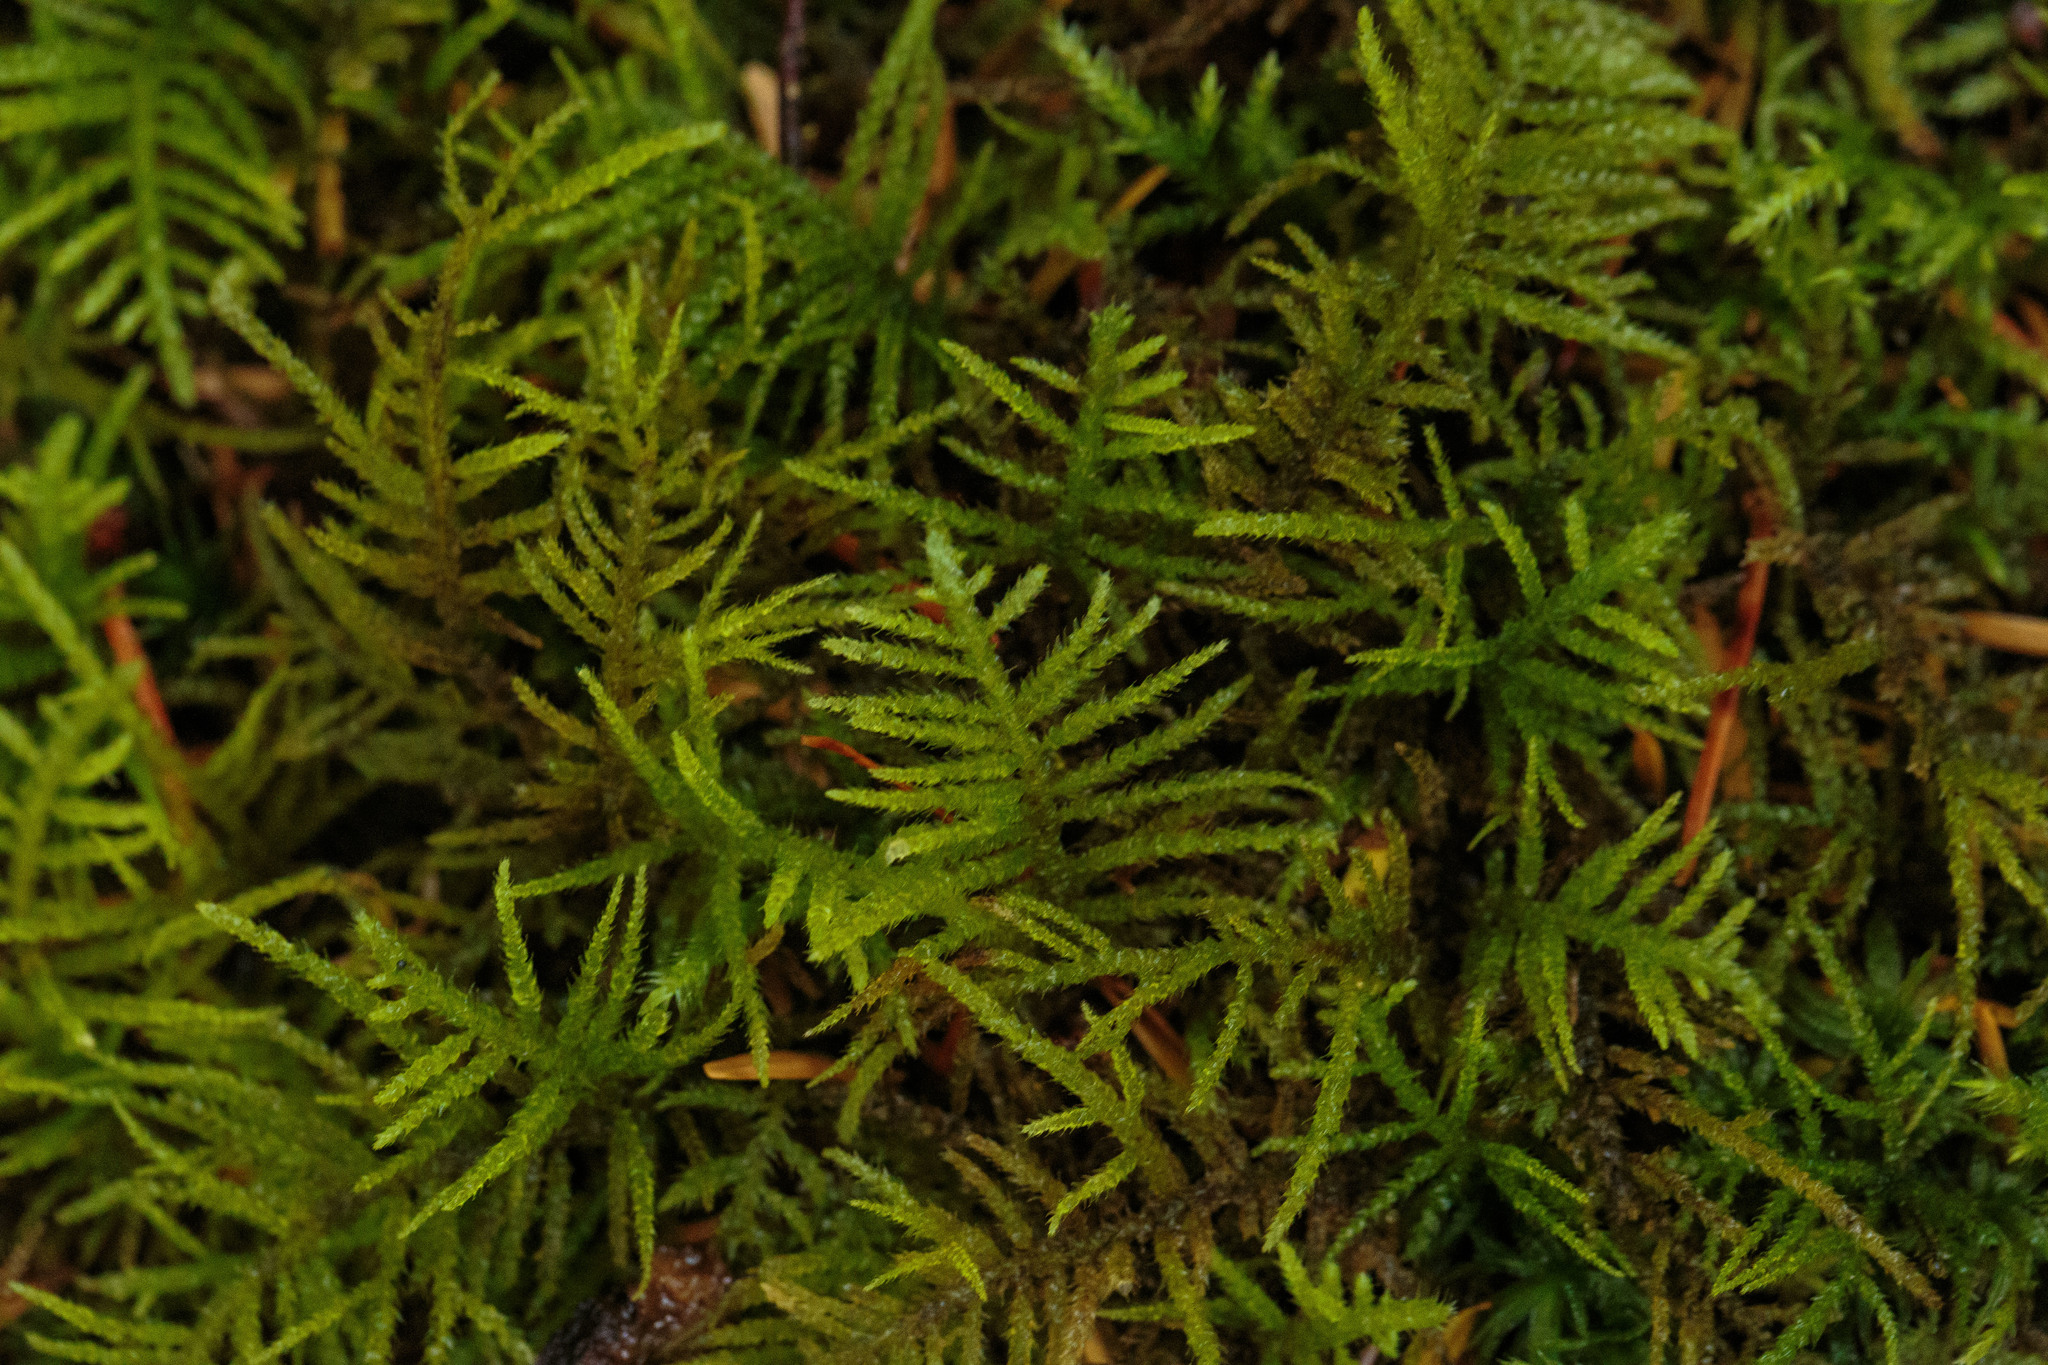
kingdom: Plantae
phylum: Bryophyta
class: Bryopsida
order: Hypnales
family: Brachytheciaceae
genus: Kindbergia
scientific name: Kindbergia oregana
